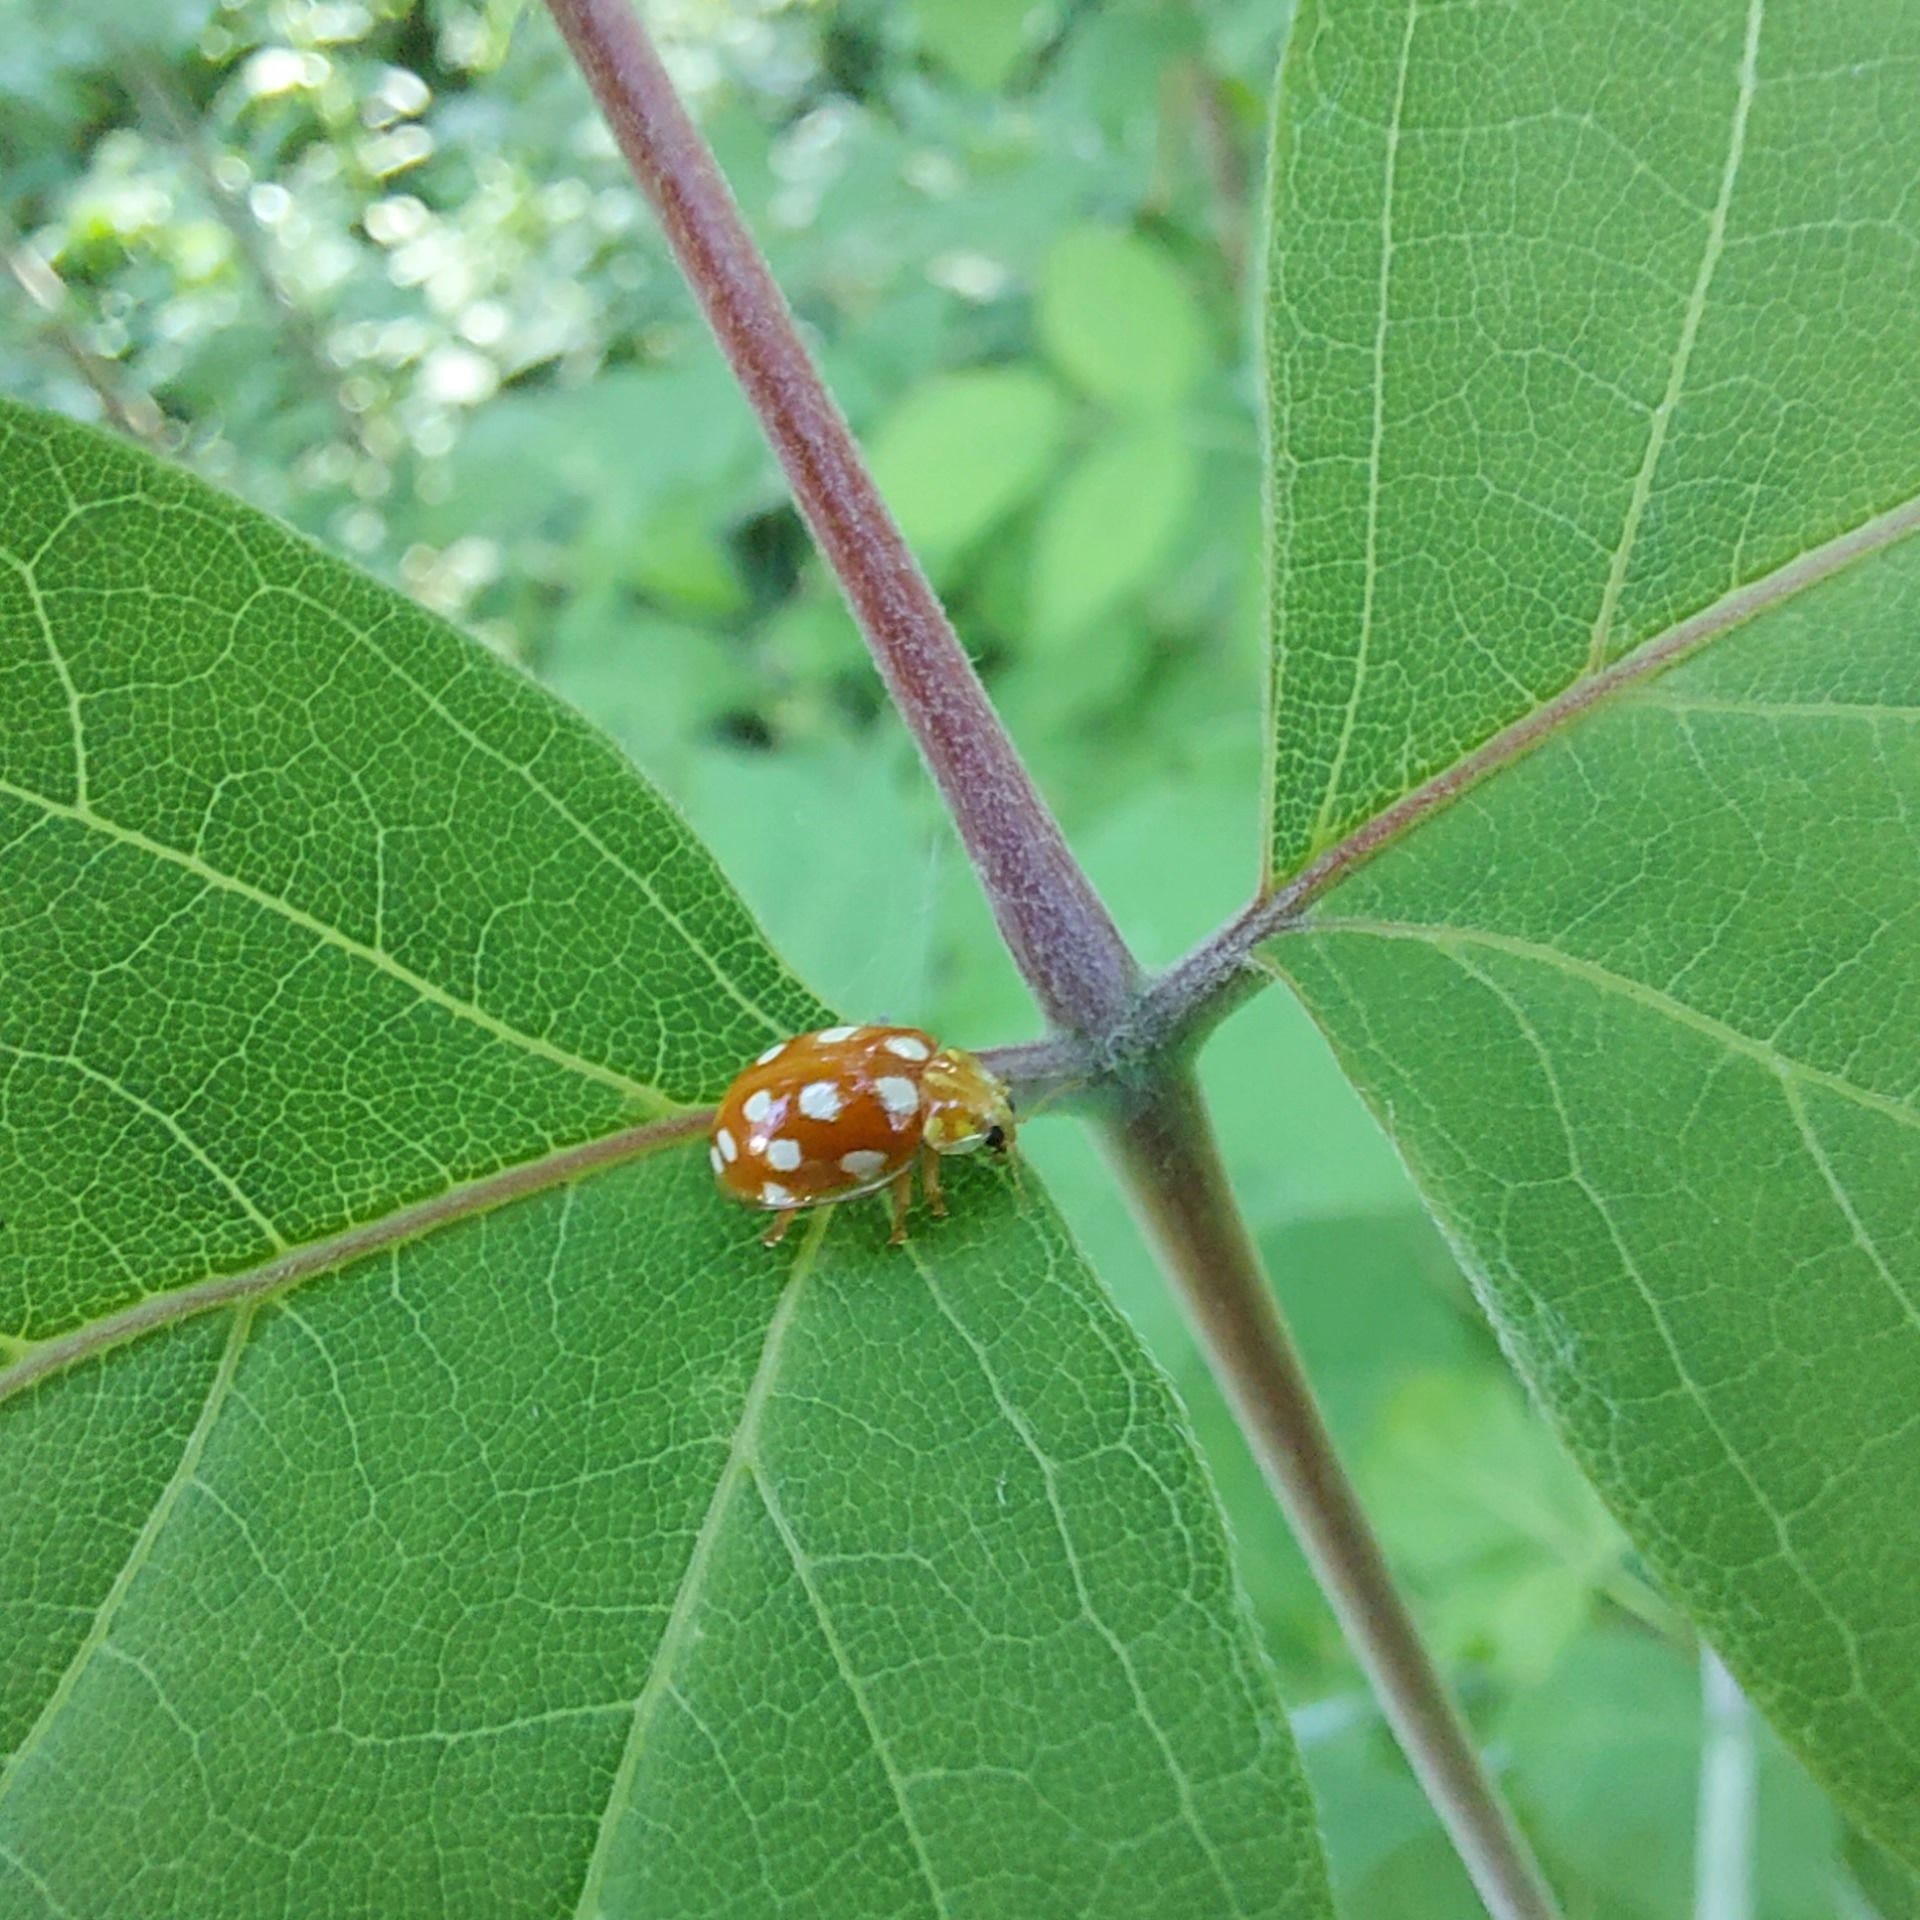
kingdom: Animalia
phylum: Arthropoda
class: Insecta
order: Coleoptera
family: Coccinellidae
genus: Halyzia
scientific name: Halyzia sedecimguttata
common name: Orange ladybird
